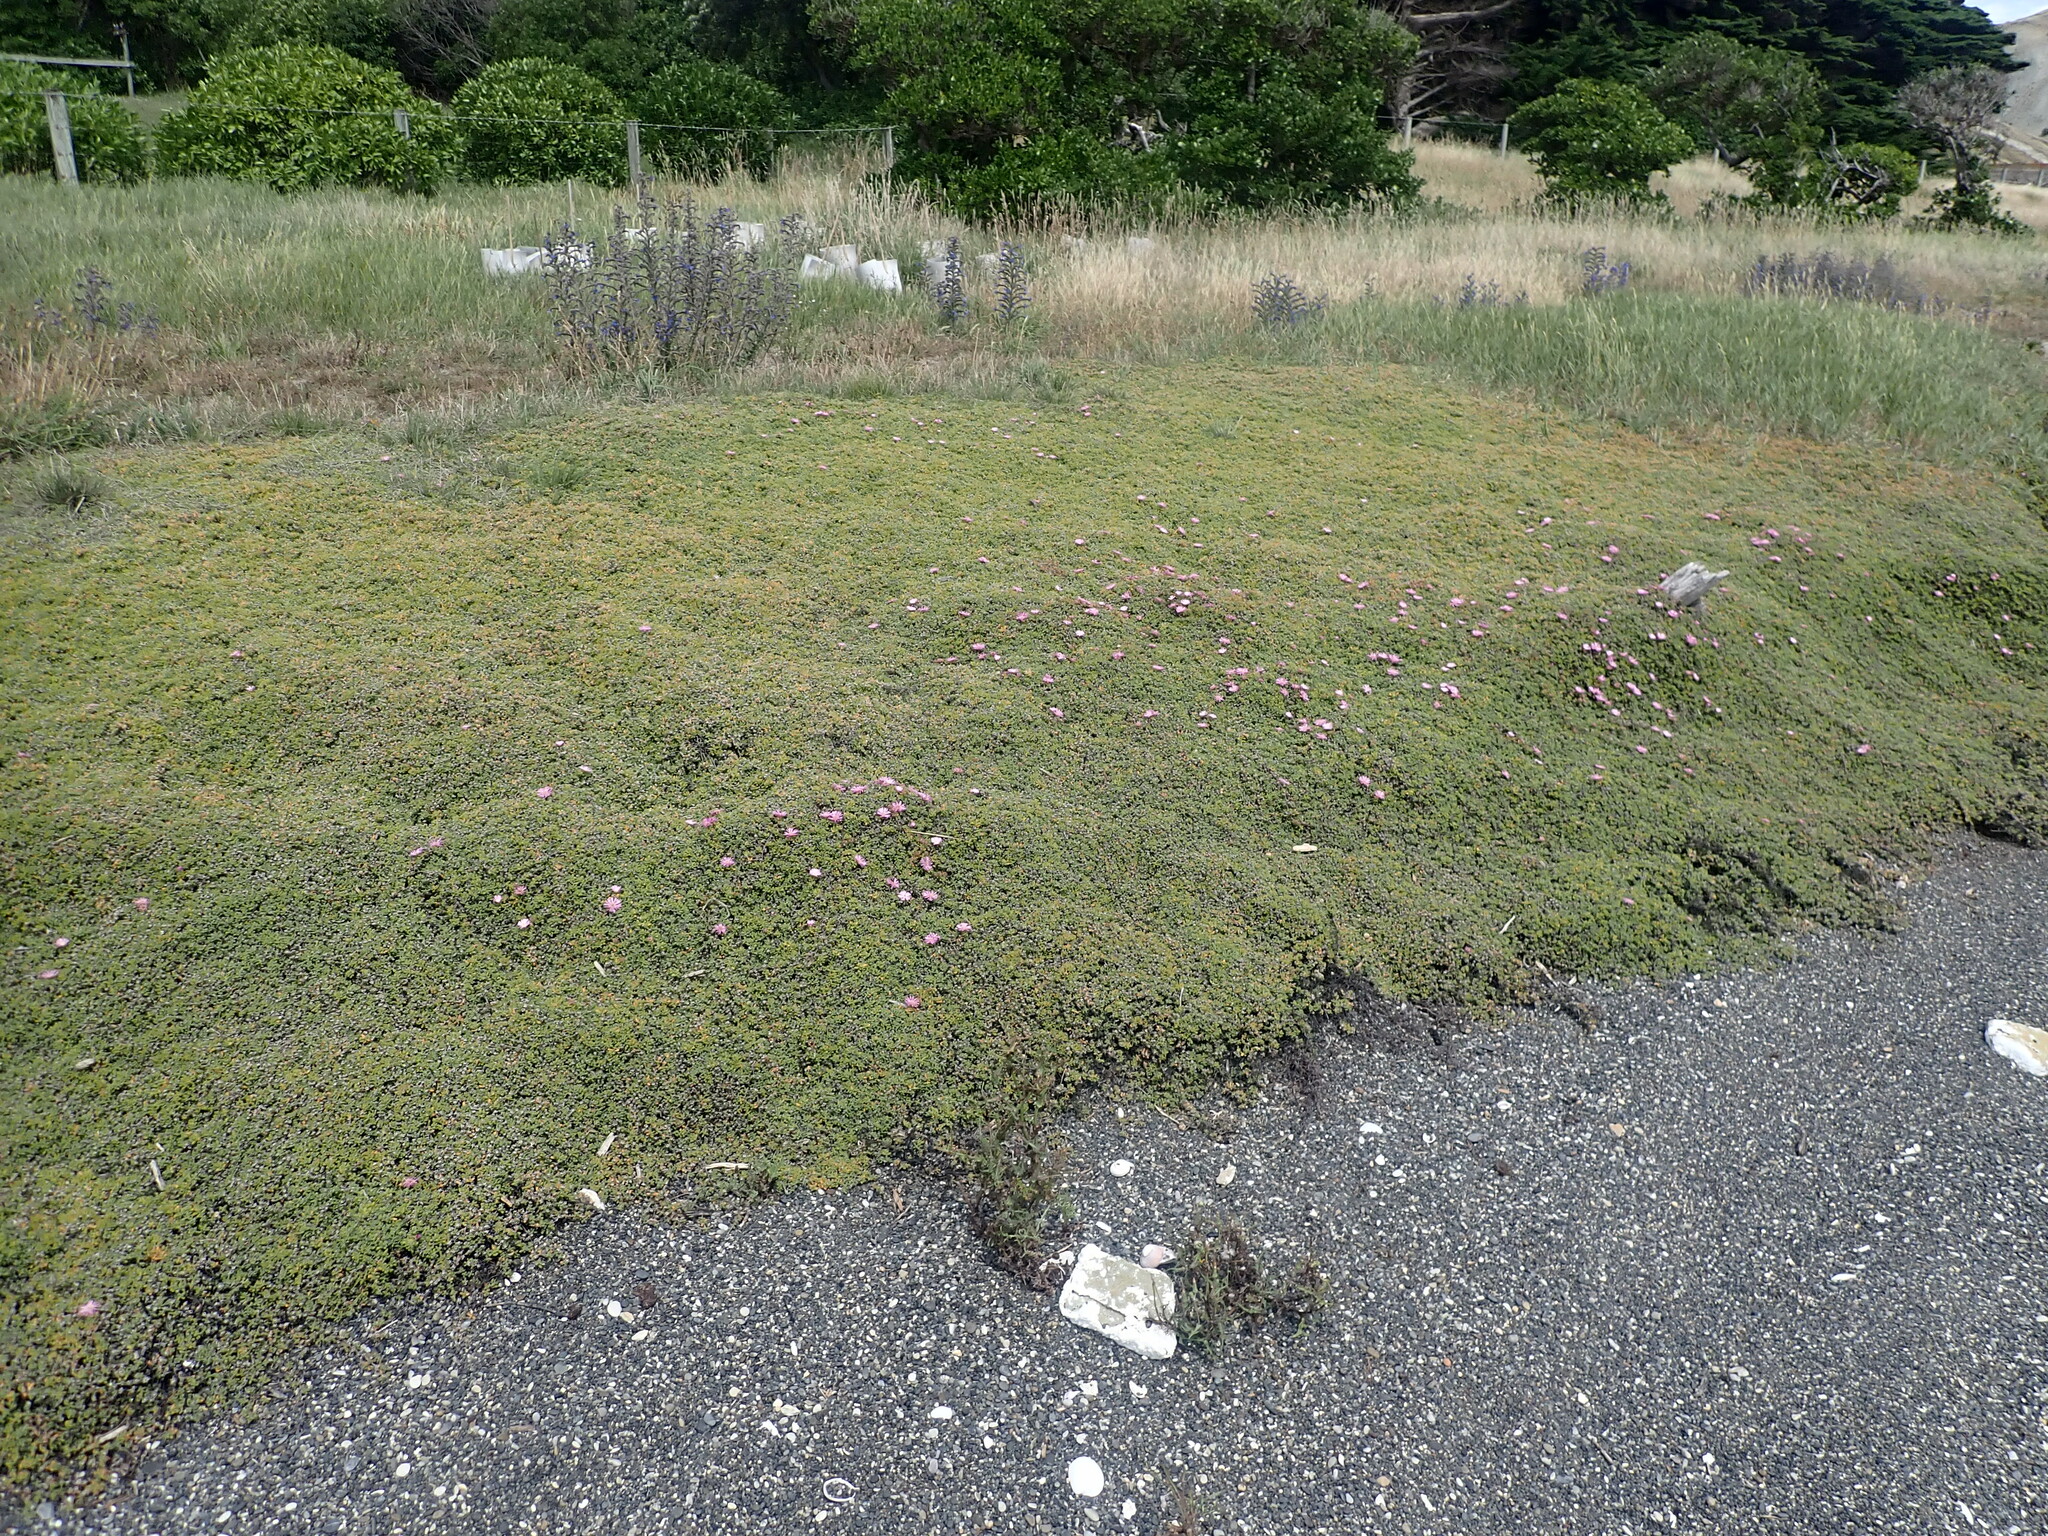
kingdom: Plantae
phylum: Tracheophyta
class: Magnoliopsida
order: Caryophyllales
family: Aizoaceae
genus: Drosanthemum
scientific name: Drosanthemum floribundum
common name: Pale dewplant
